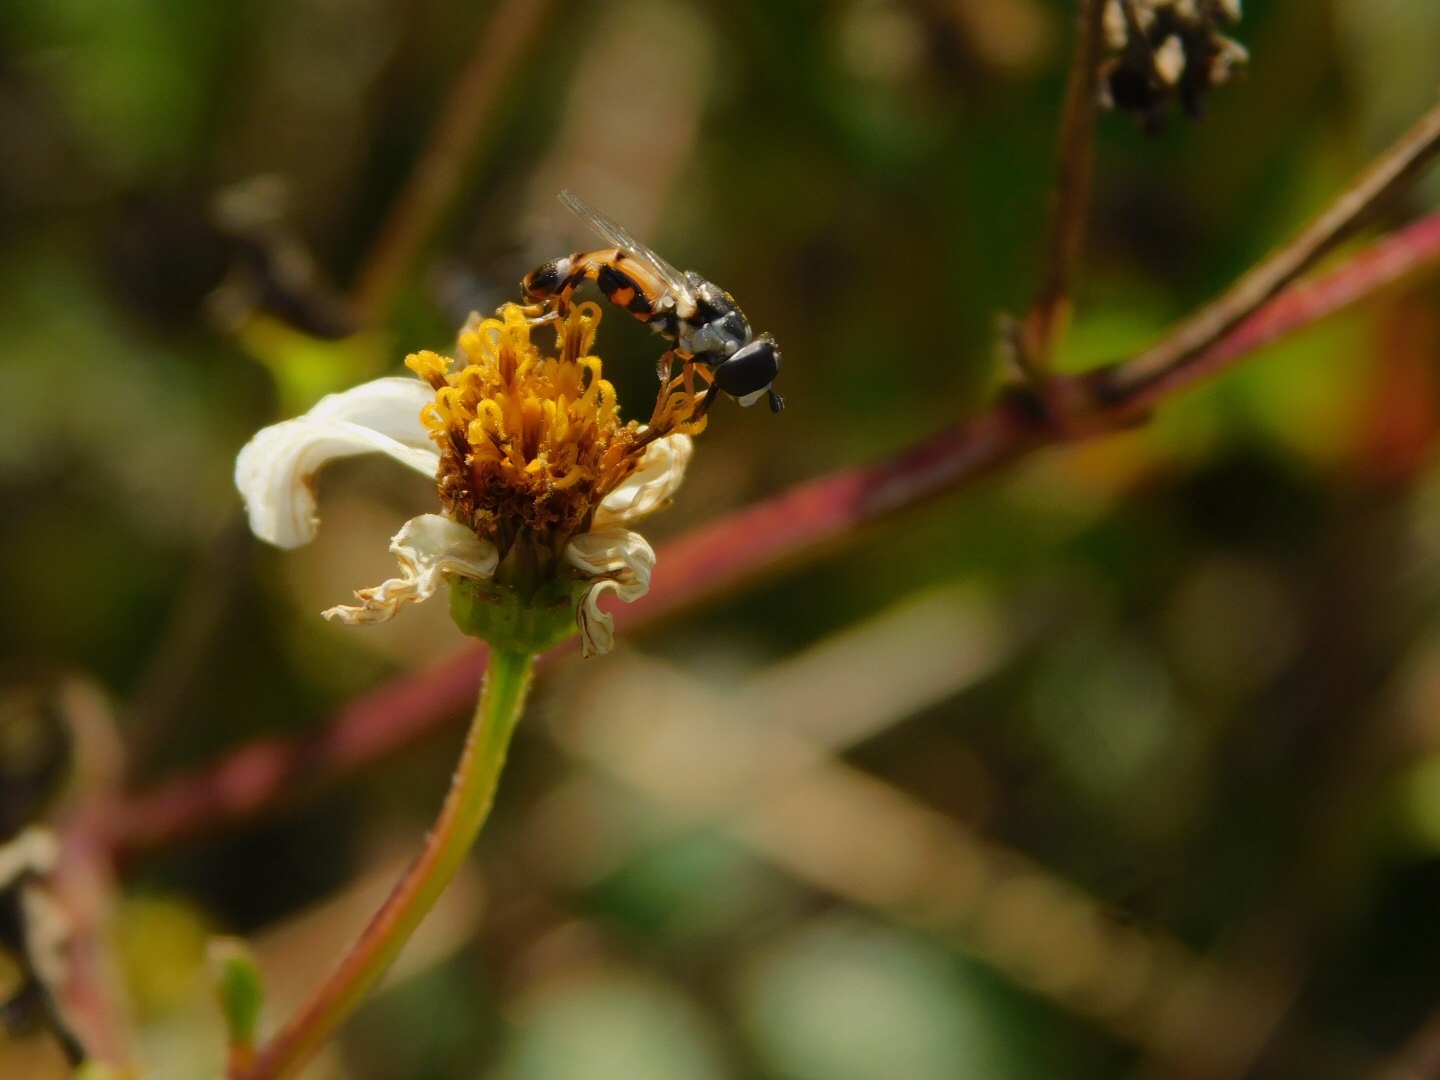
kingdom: Animalia
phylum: Arthropoda
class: Insecta
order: Diptera
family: Syrphidae
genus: Syritta
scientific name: Syritta flaviventris
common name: Syrphid fly
